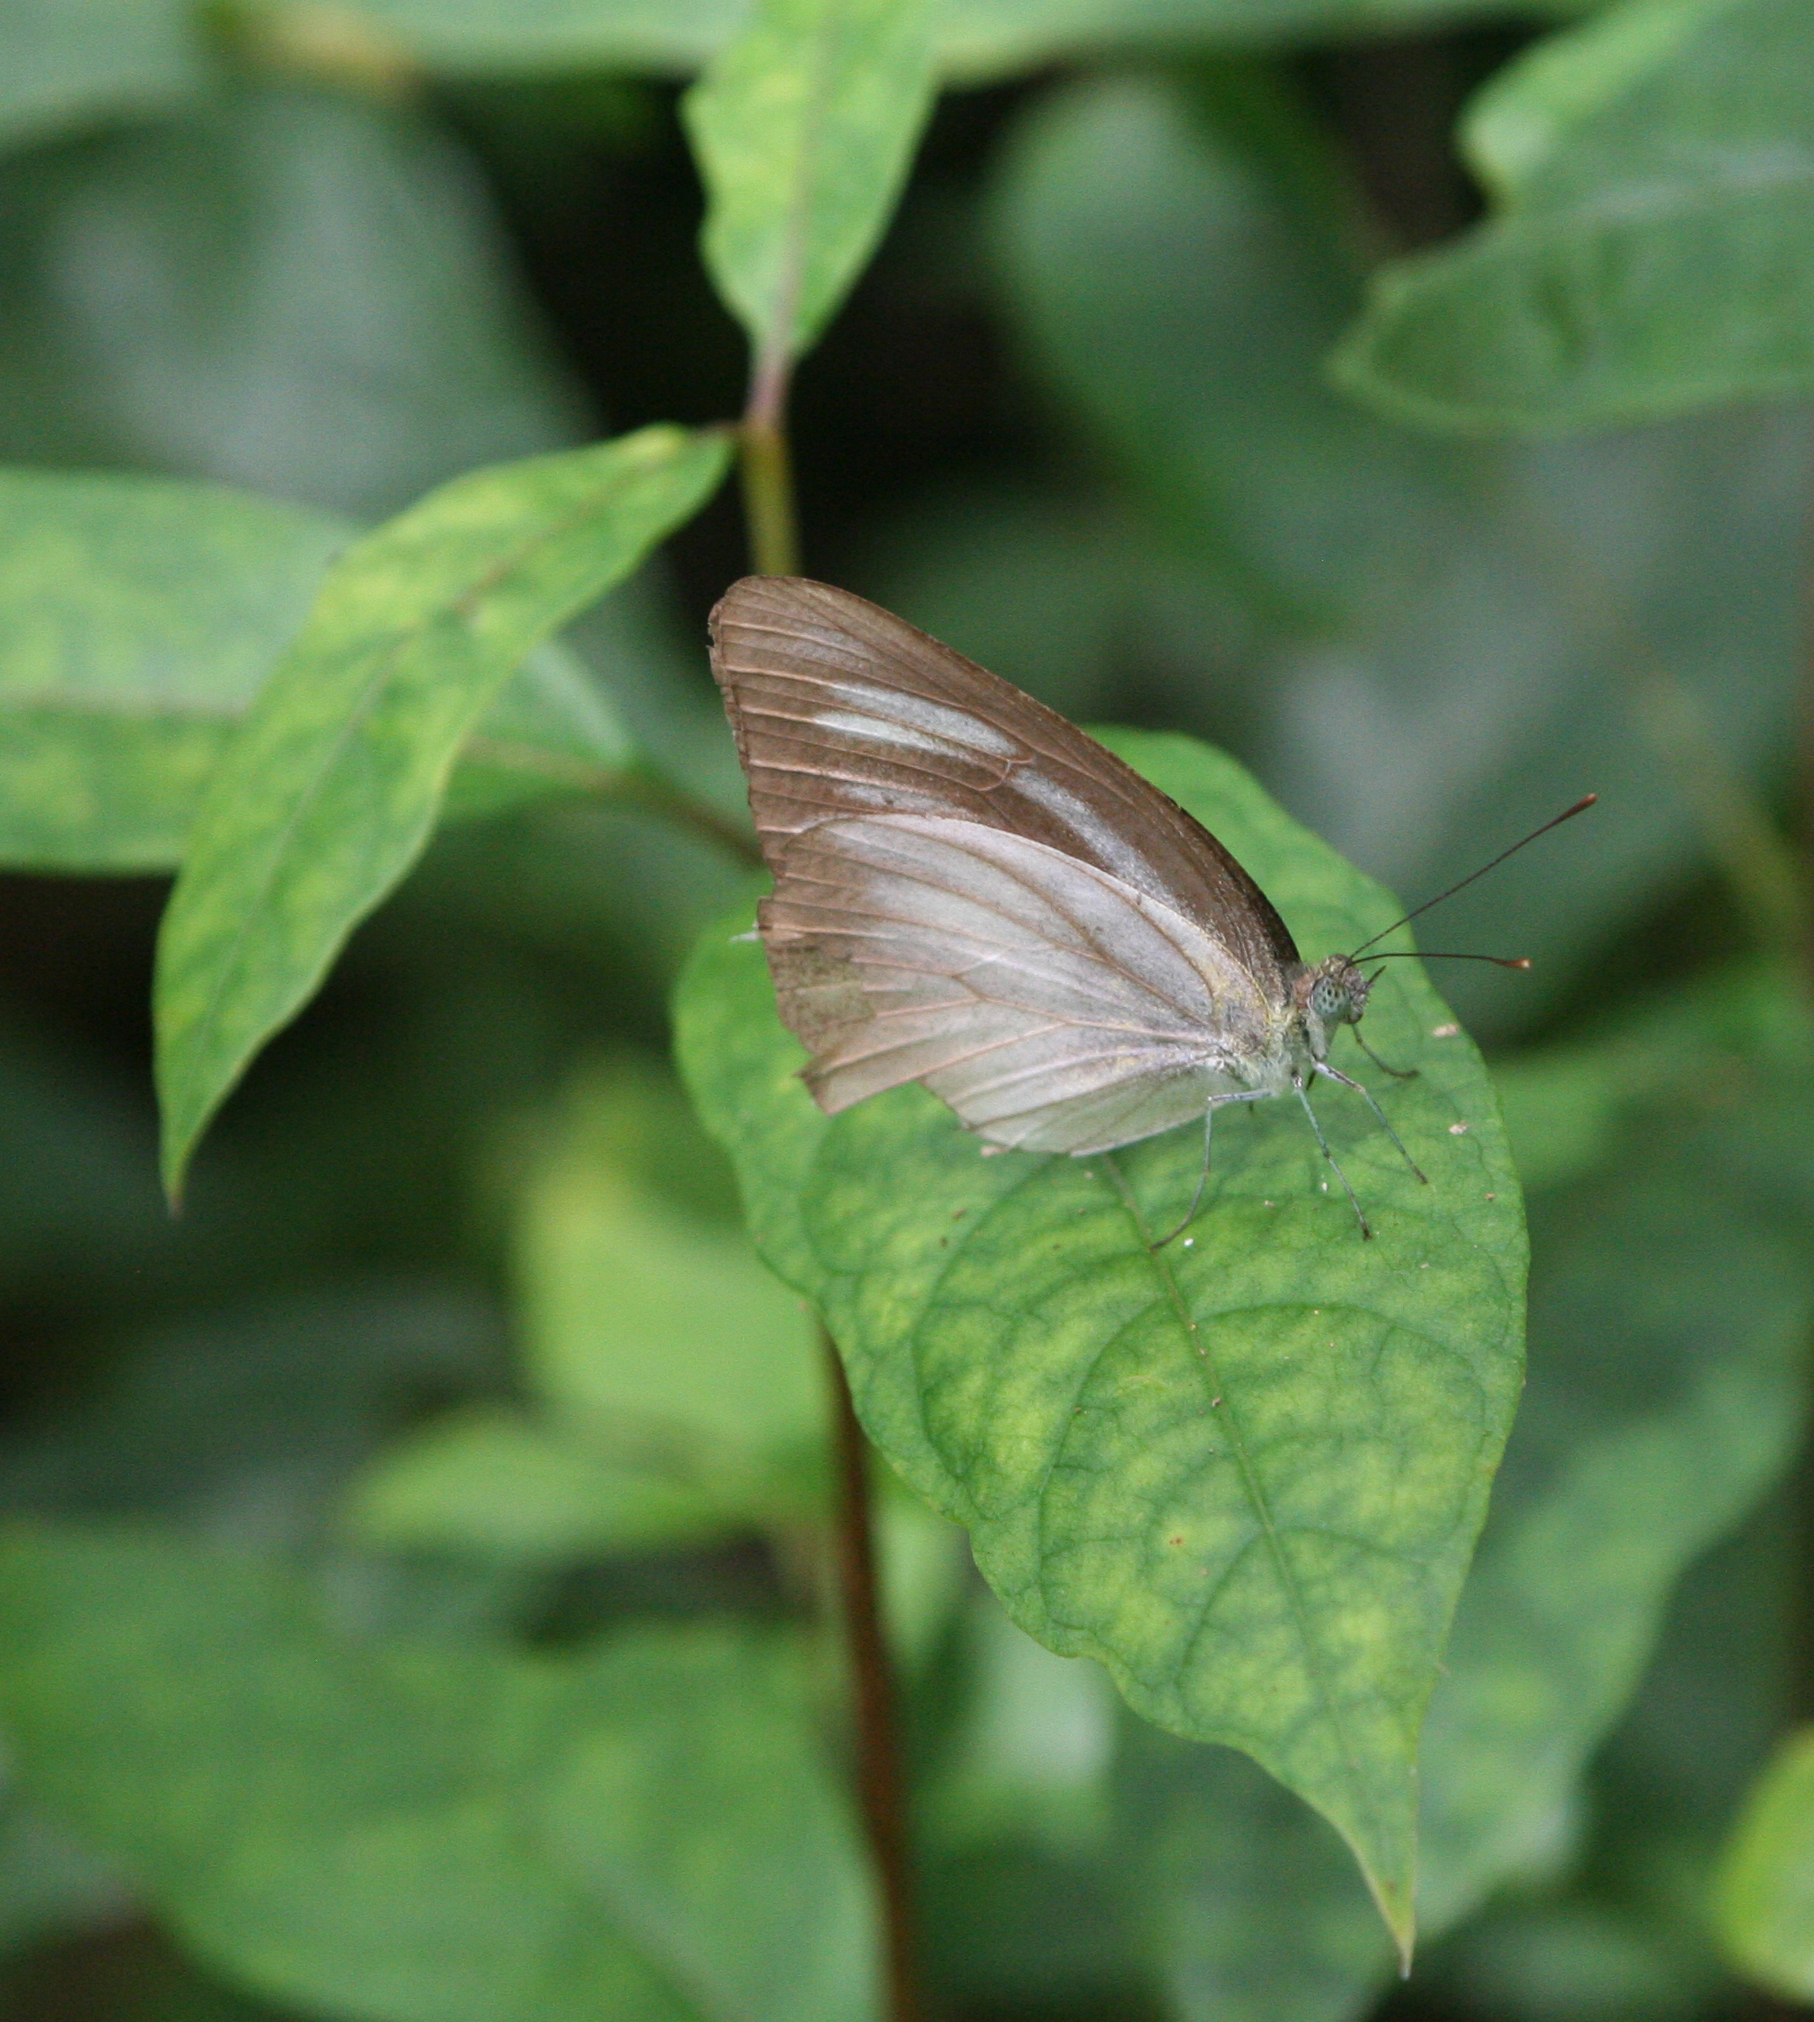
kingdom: Animalia
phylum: Arthropoda
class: Insecta
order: Lepidoptera
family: Pieridae
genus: Appias
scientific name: Appias lyncida
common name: Chocolate albatross
